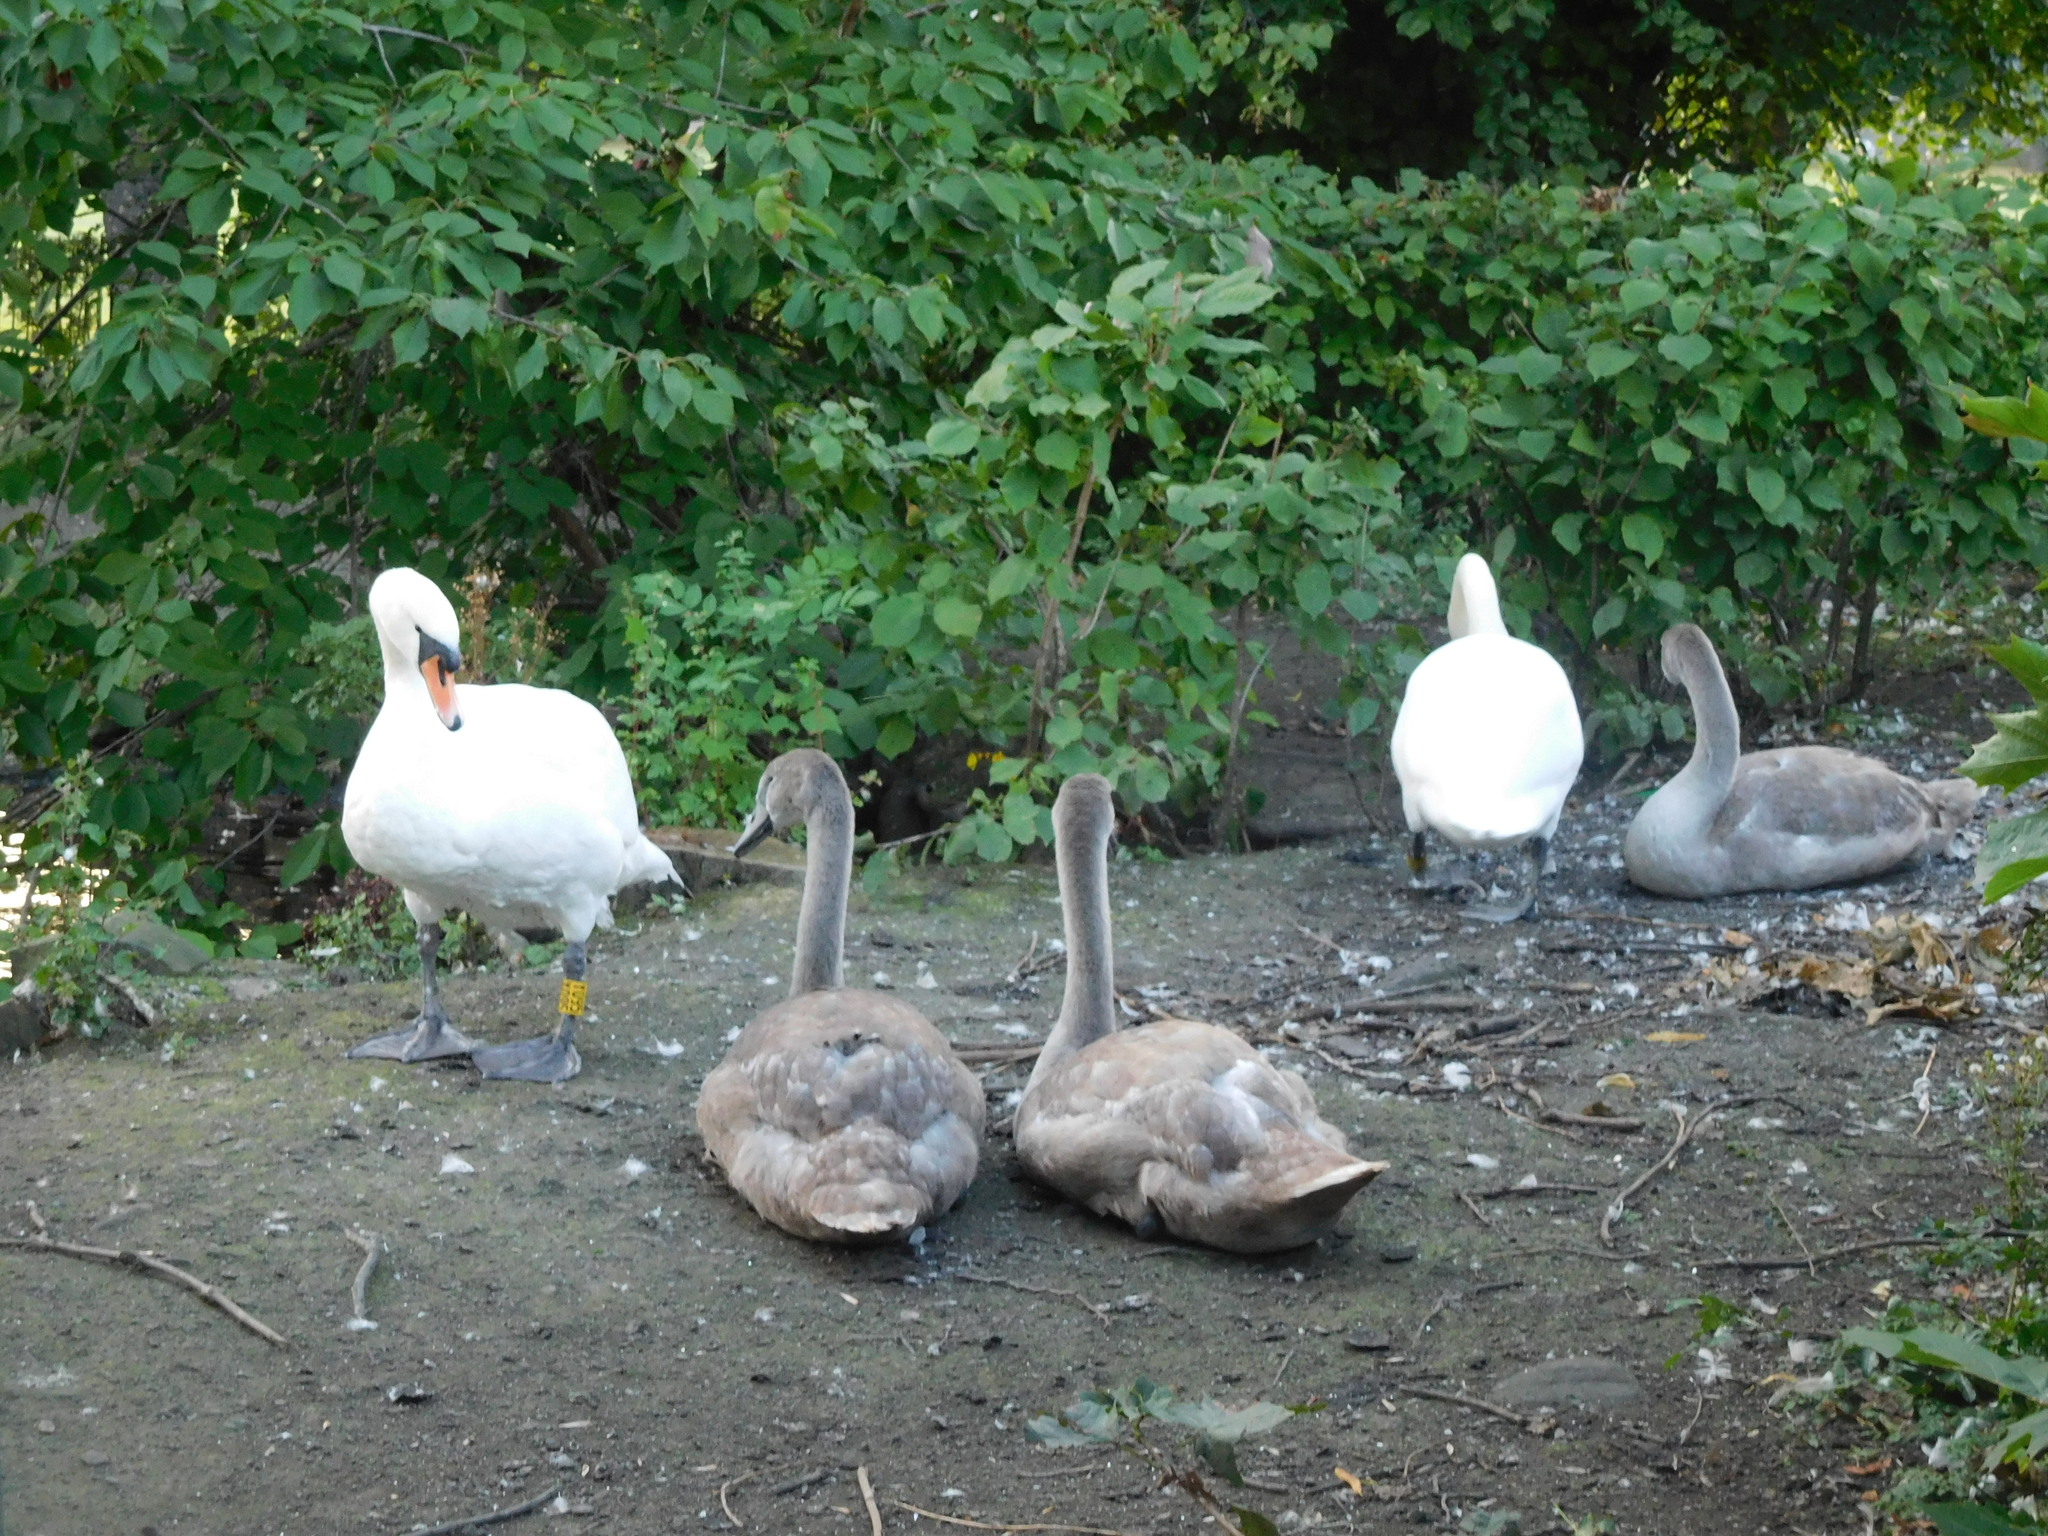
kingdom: Animalia
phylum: Chordata
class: Aves
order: Anseriformes
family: Anatidae
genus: Cygnus
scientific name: Cygnus olor
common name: Mute swan
